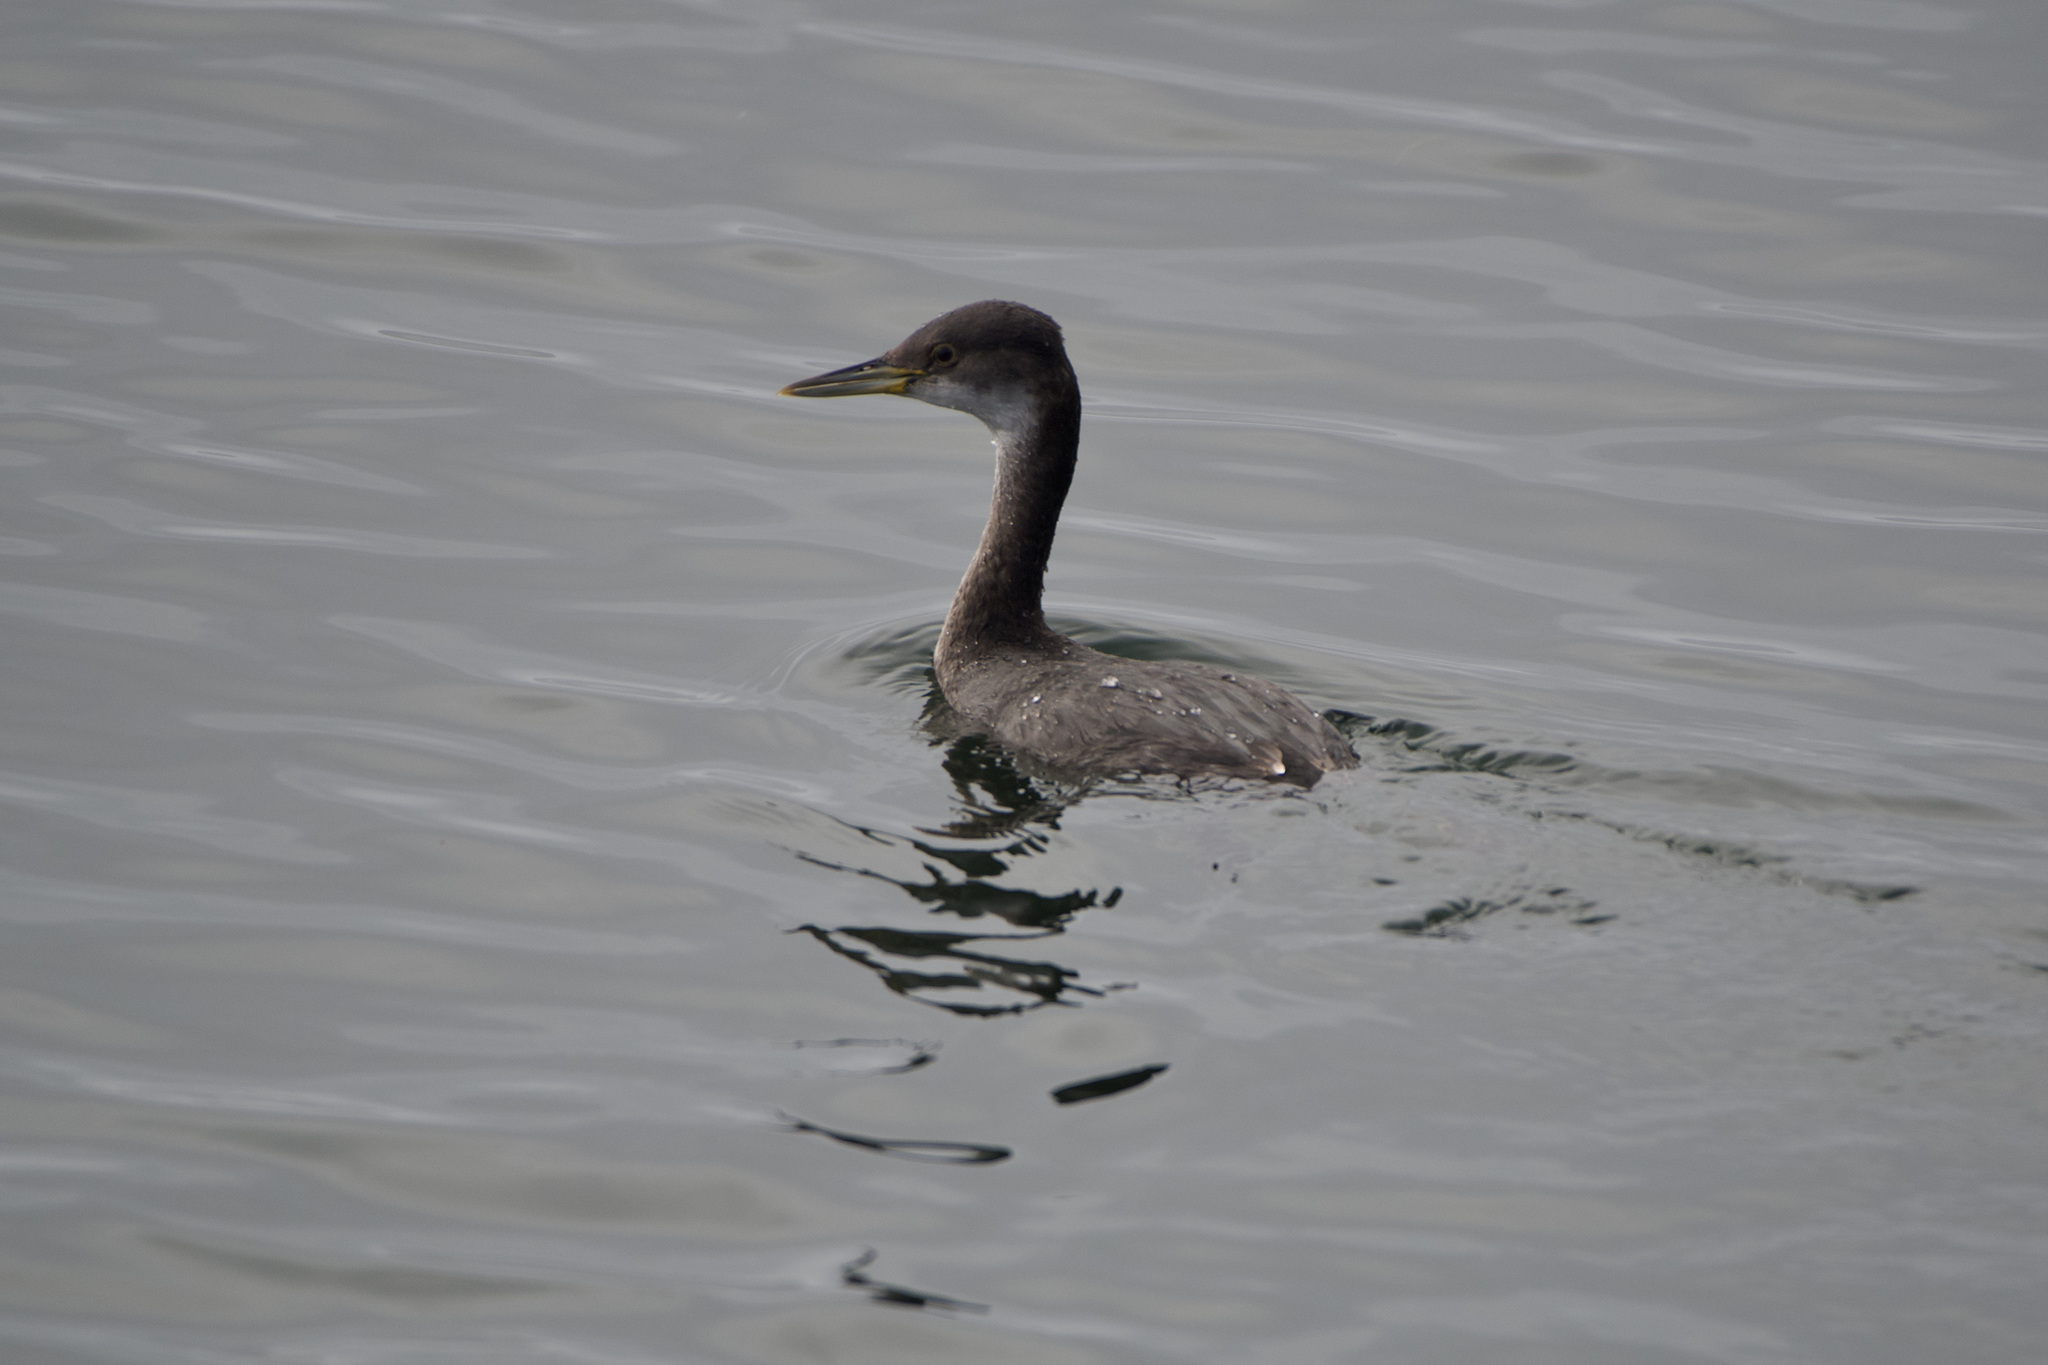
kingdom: Animalia
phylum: Chordata
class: Aves
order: Podicipediformes
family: Podicipedidae
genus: Podiceps
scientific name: Podiceps grisegena
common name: Red-necked grebe
